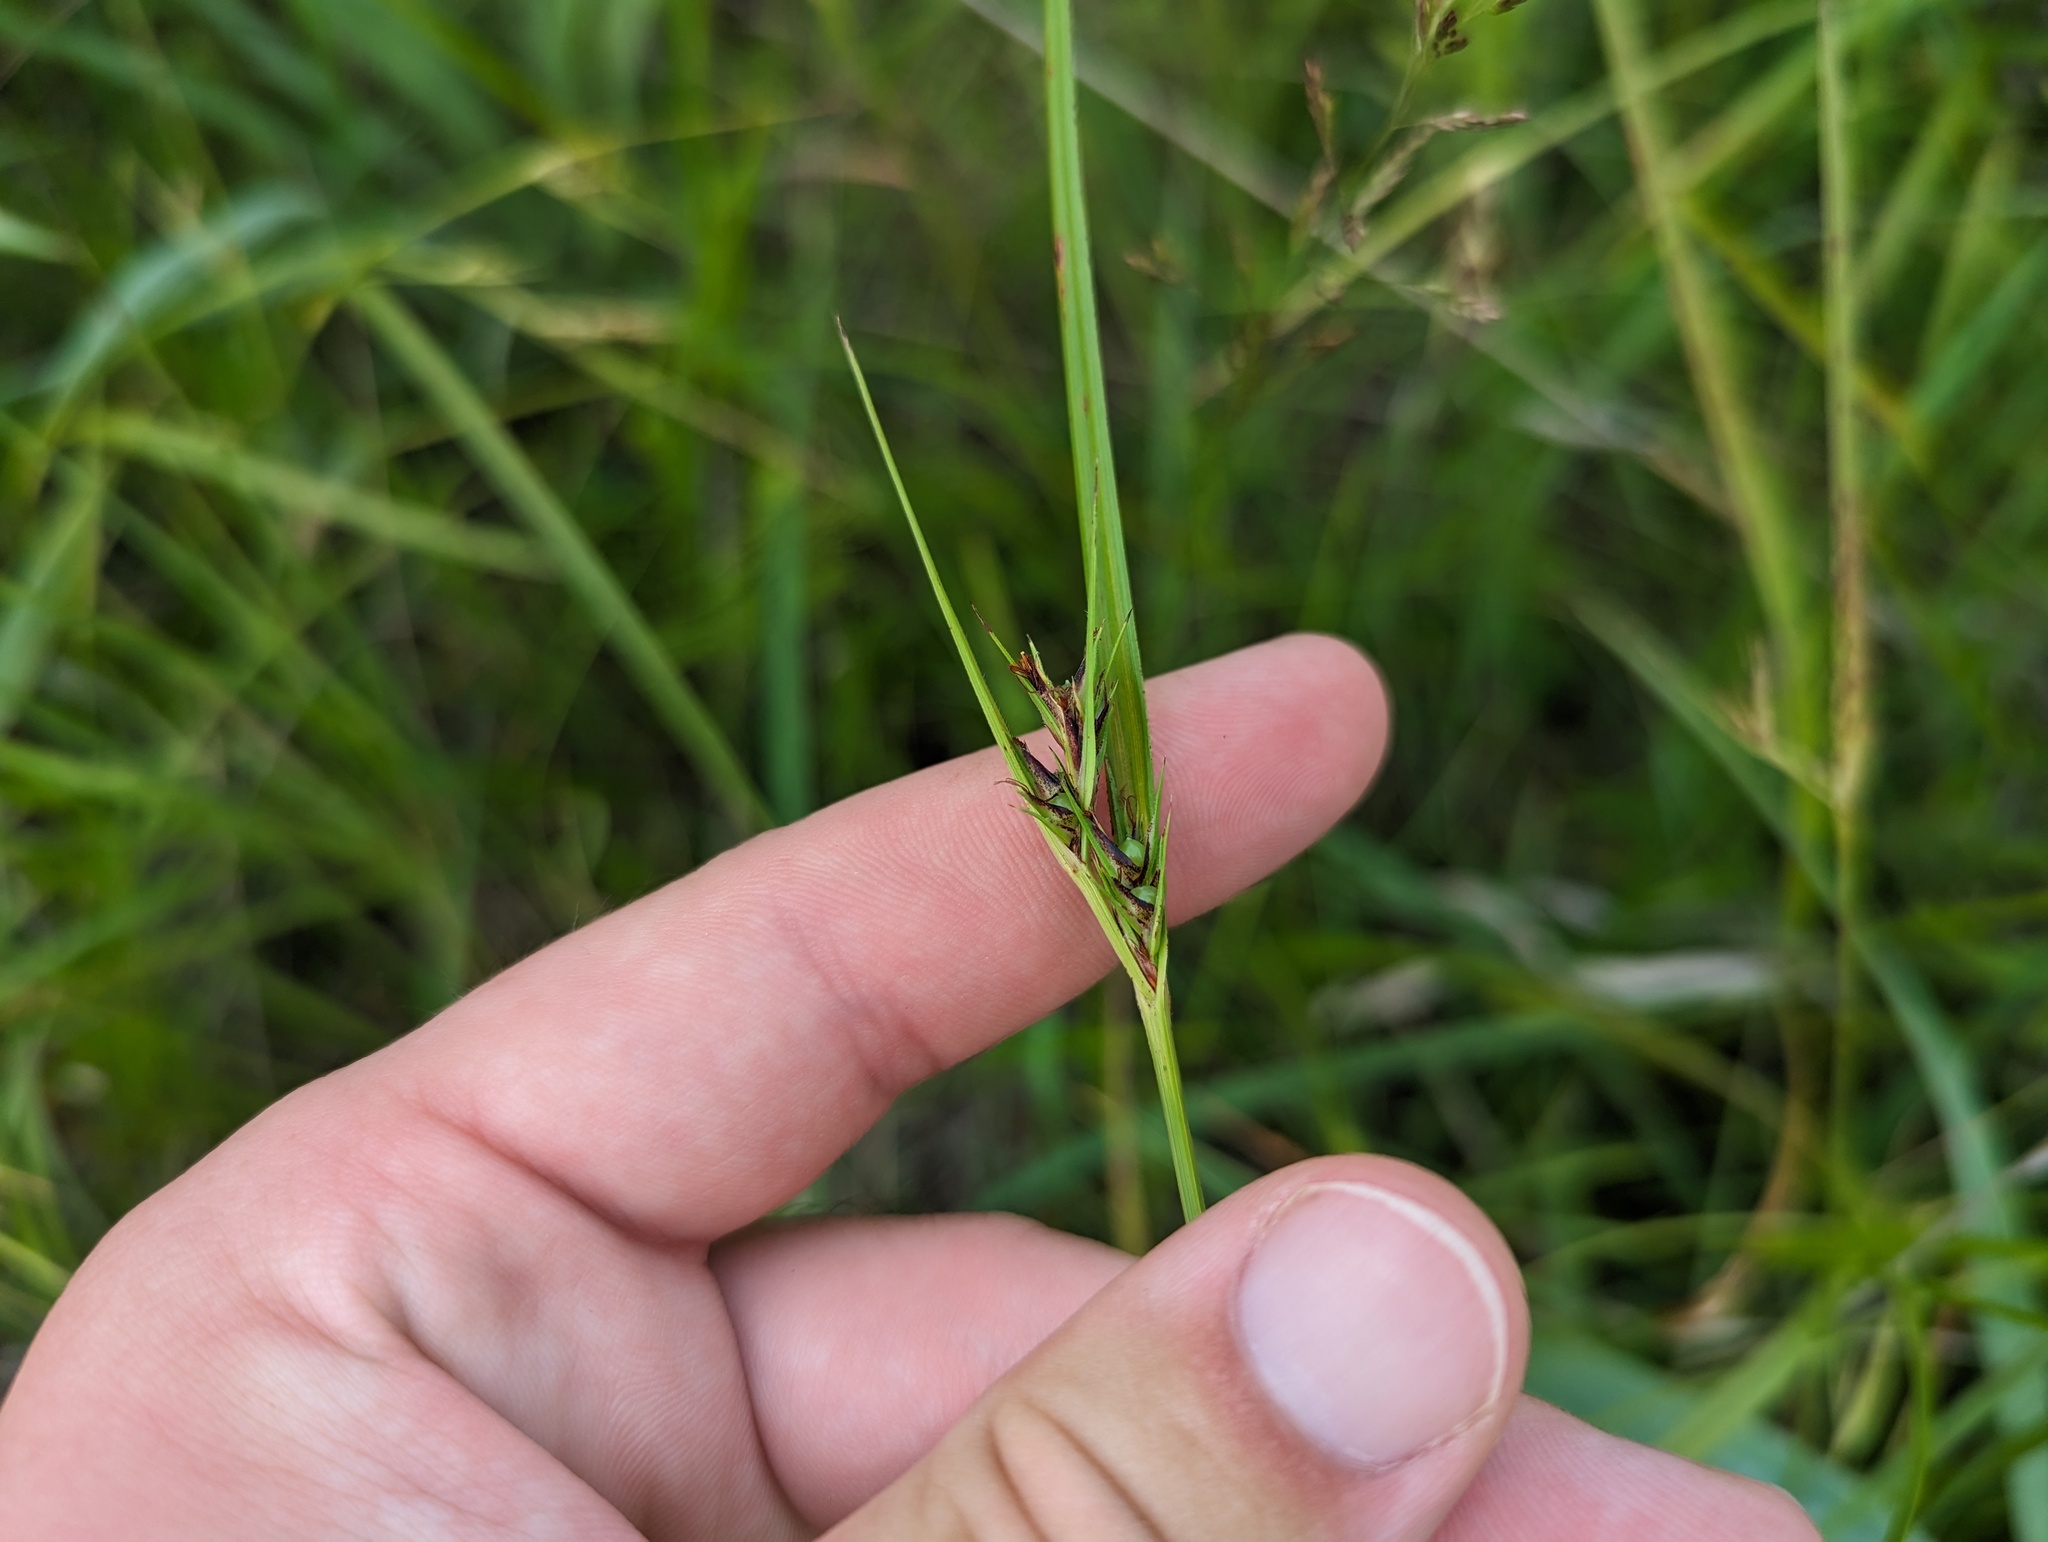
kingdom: Plantae
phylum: Tracheophyta
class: Liliopsida
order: Poales
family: Cyperaceae
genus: Scleria
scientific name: Scleria triglomerata
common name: Whip nutrush
